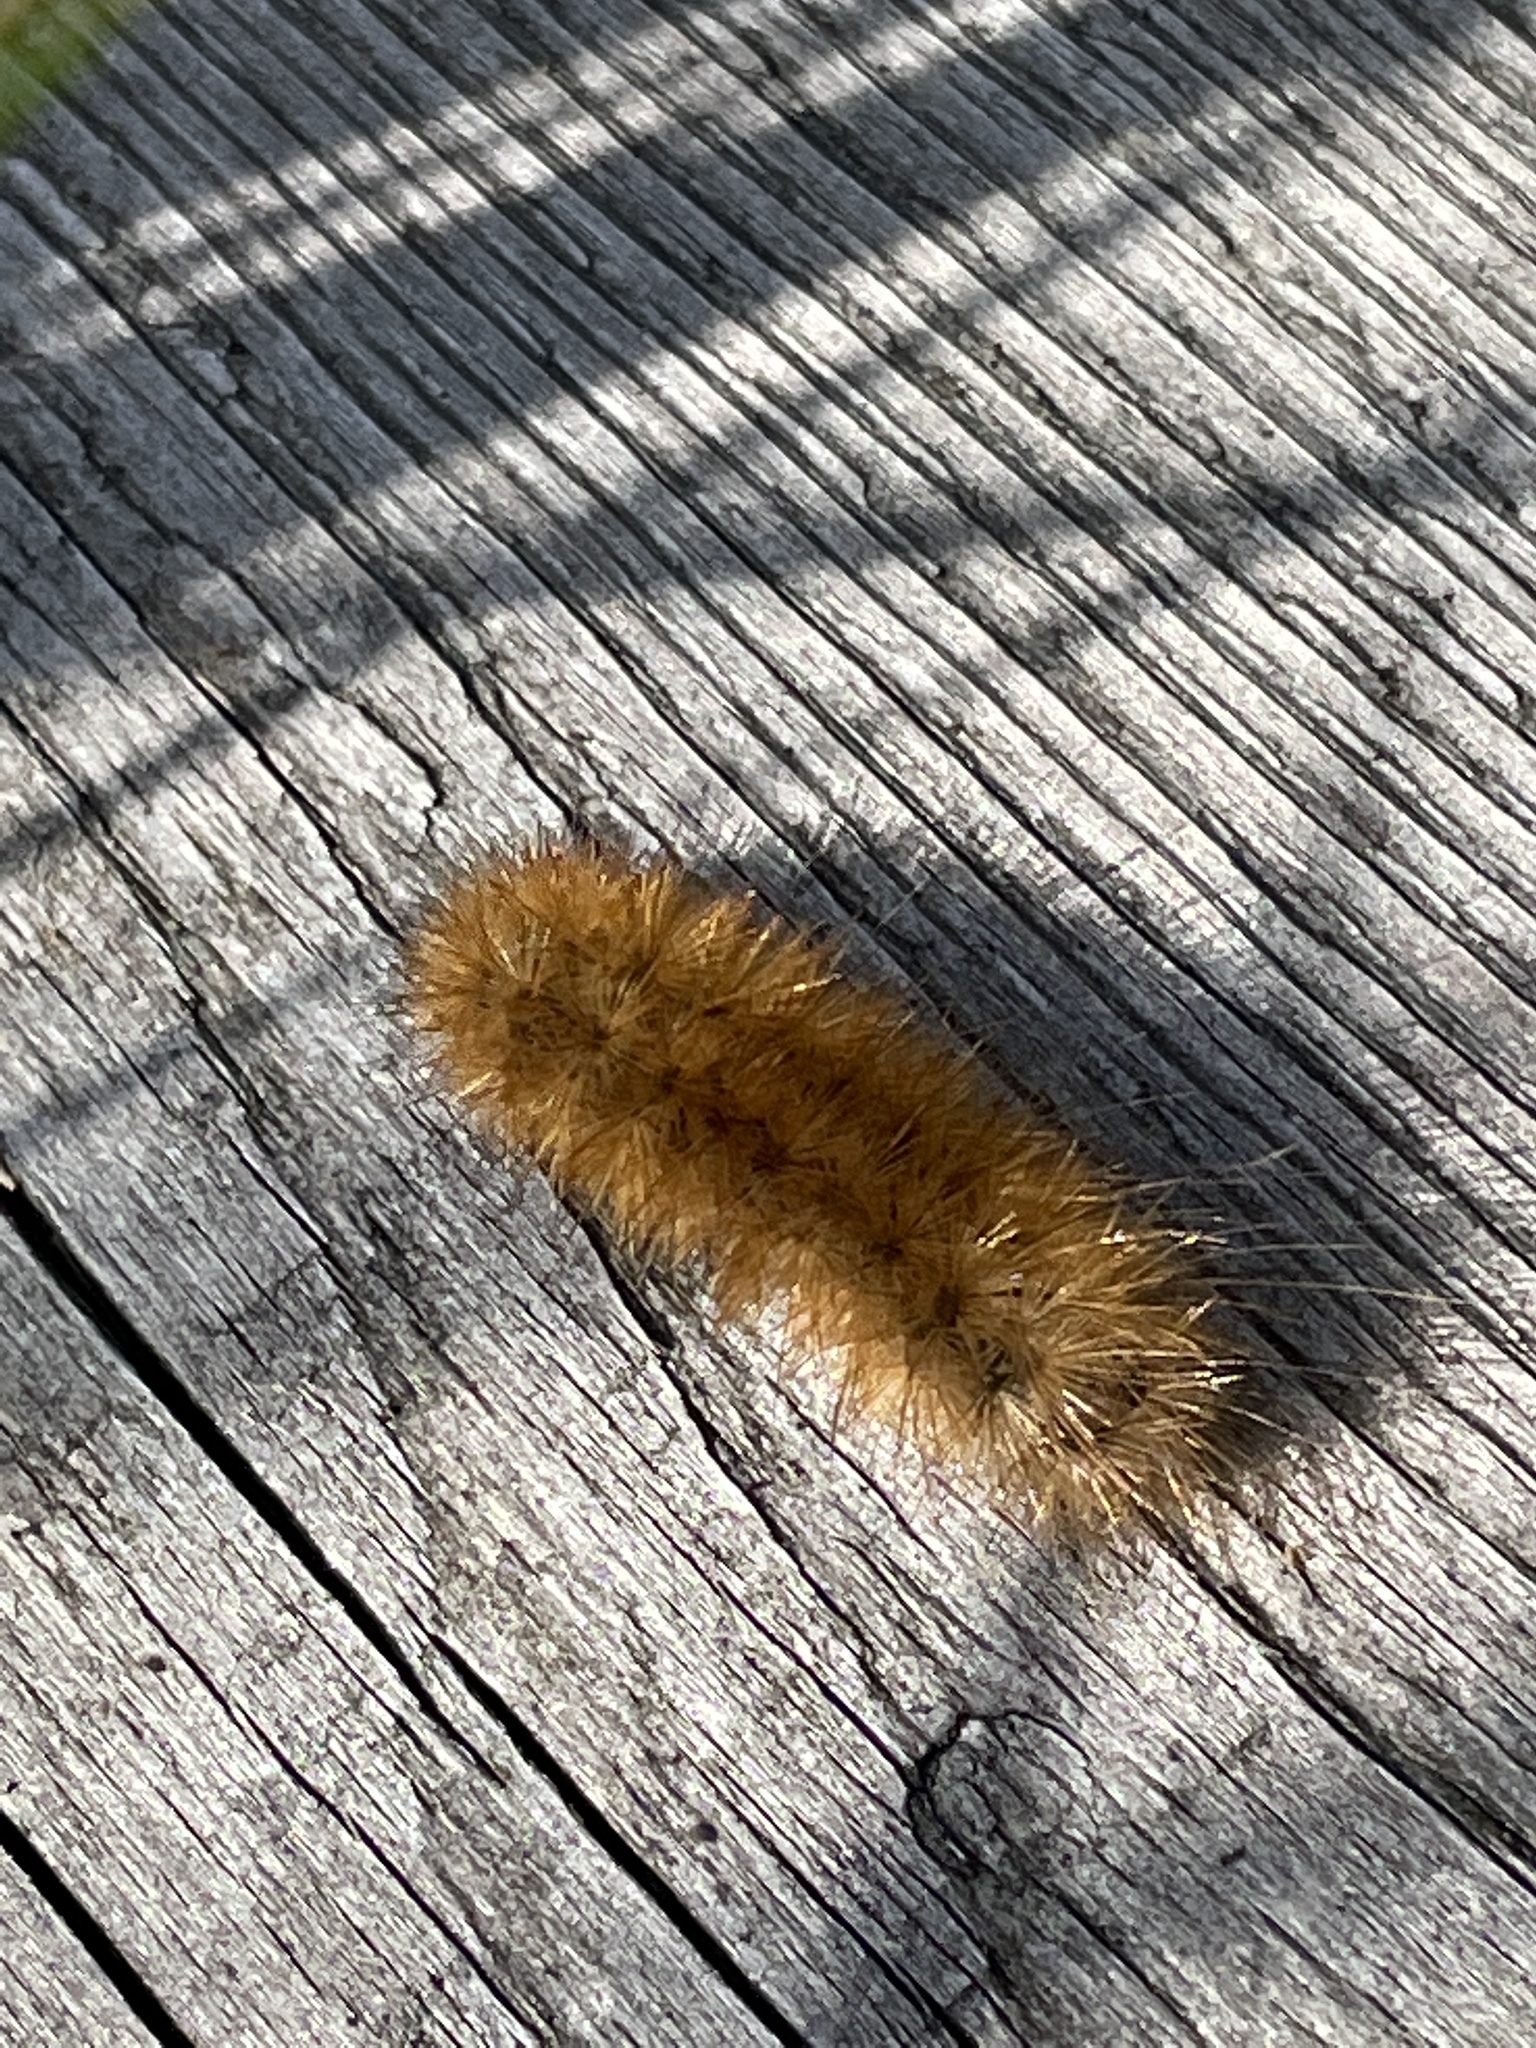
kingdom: Animalia
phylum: Arthropoda
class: Insecta
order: Lepidoptera
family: Erebidae
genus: Phragmatobia
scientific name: Phragmatobia fuliginosa
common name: Ruby tiger
